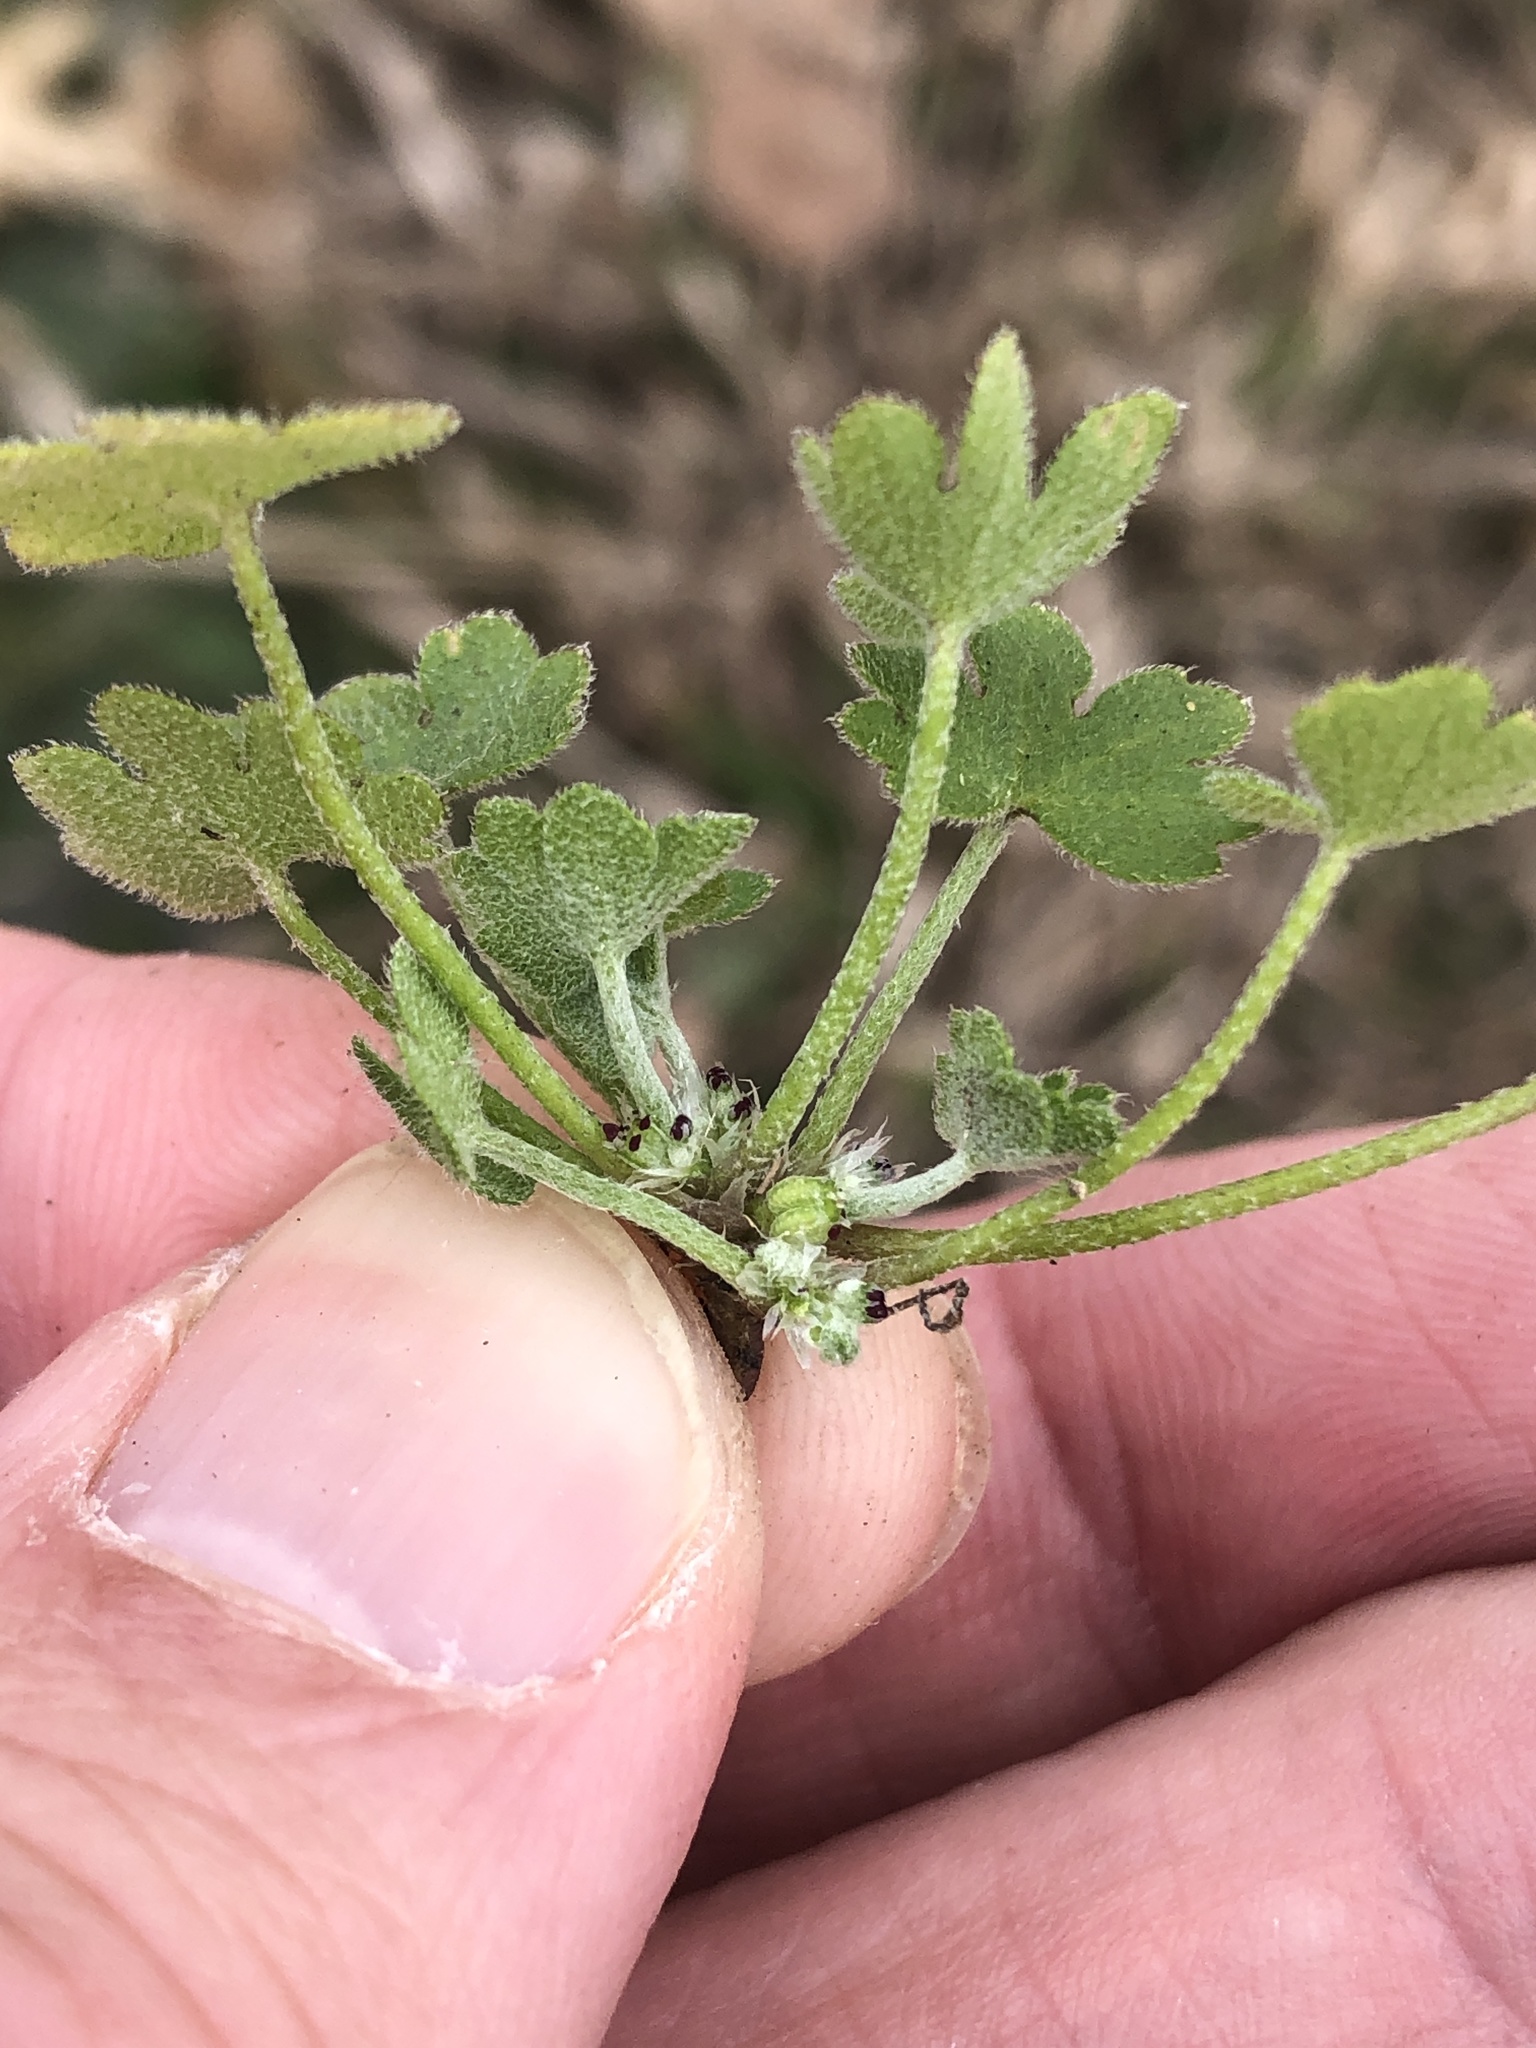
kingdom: Plantae
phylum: Tracheophyta
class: Magnoliopsida
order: Apiales
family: Apiaceae
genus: Bowlesia
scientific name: Bowlesia incana
